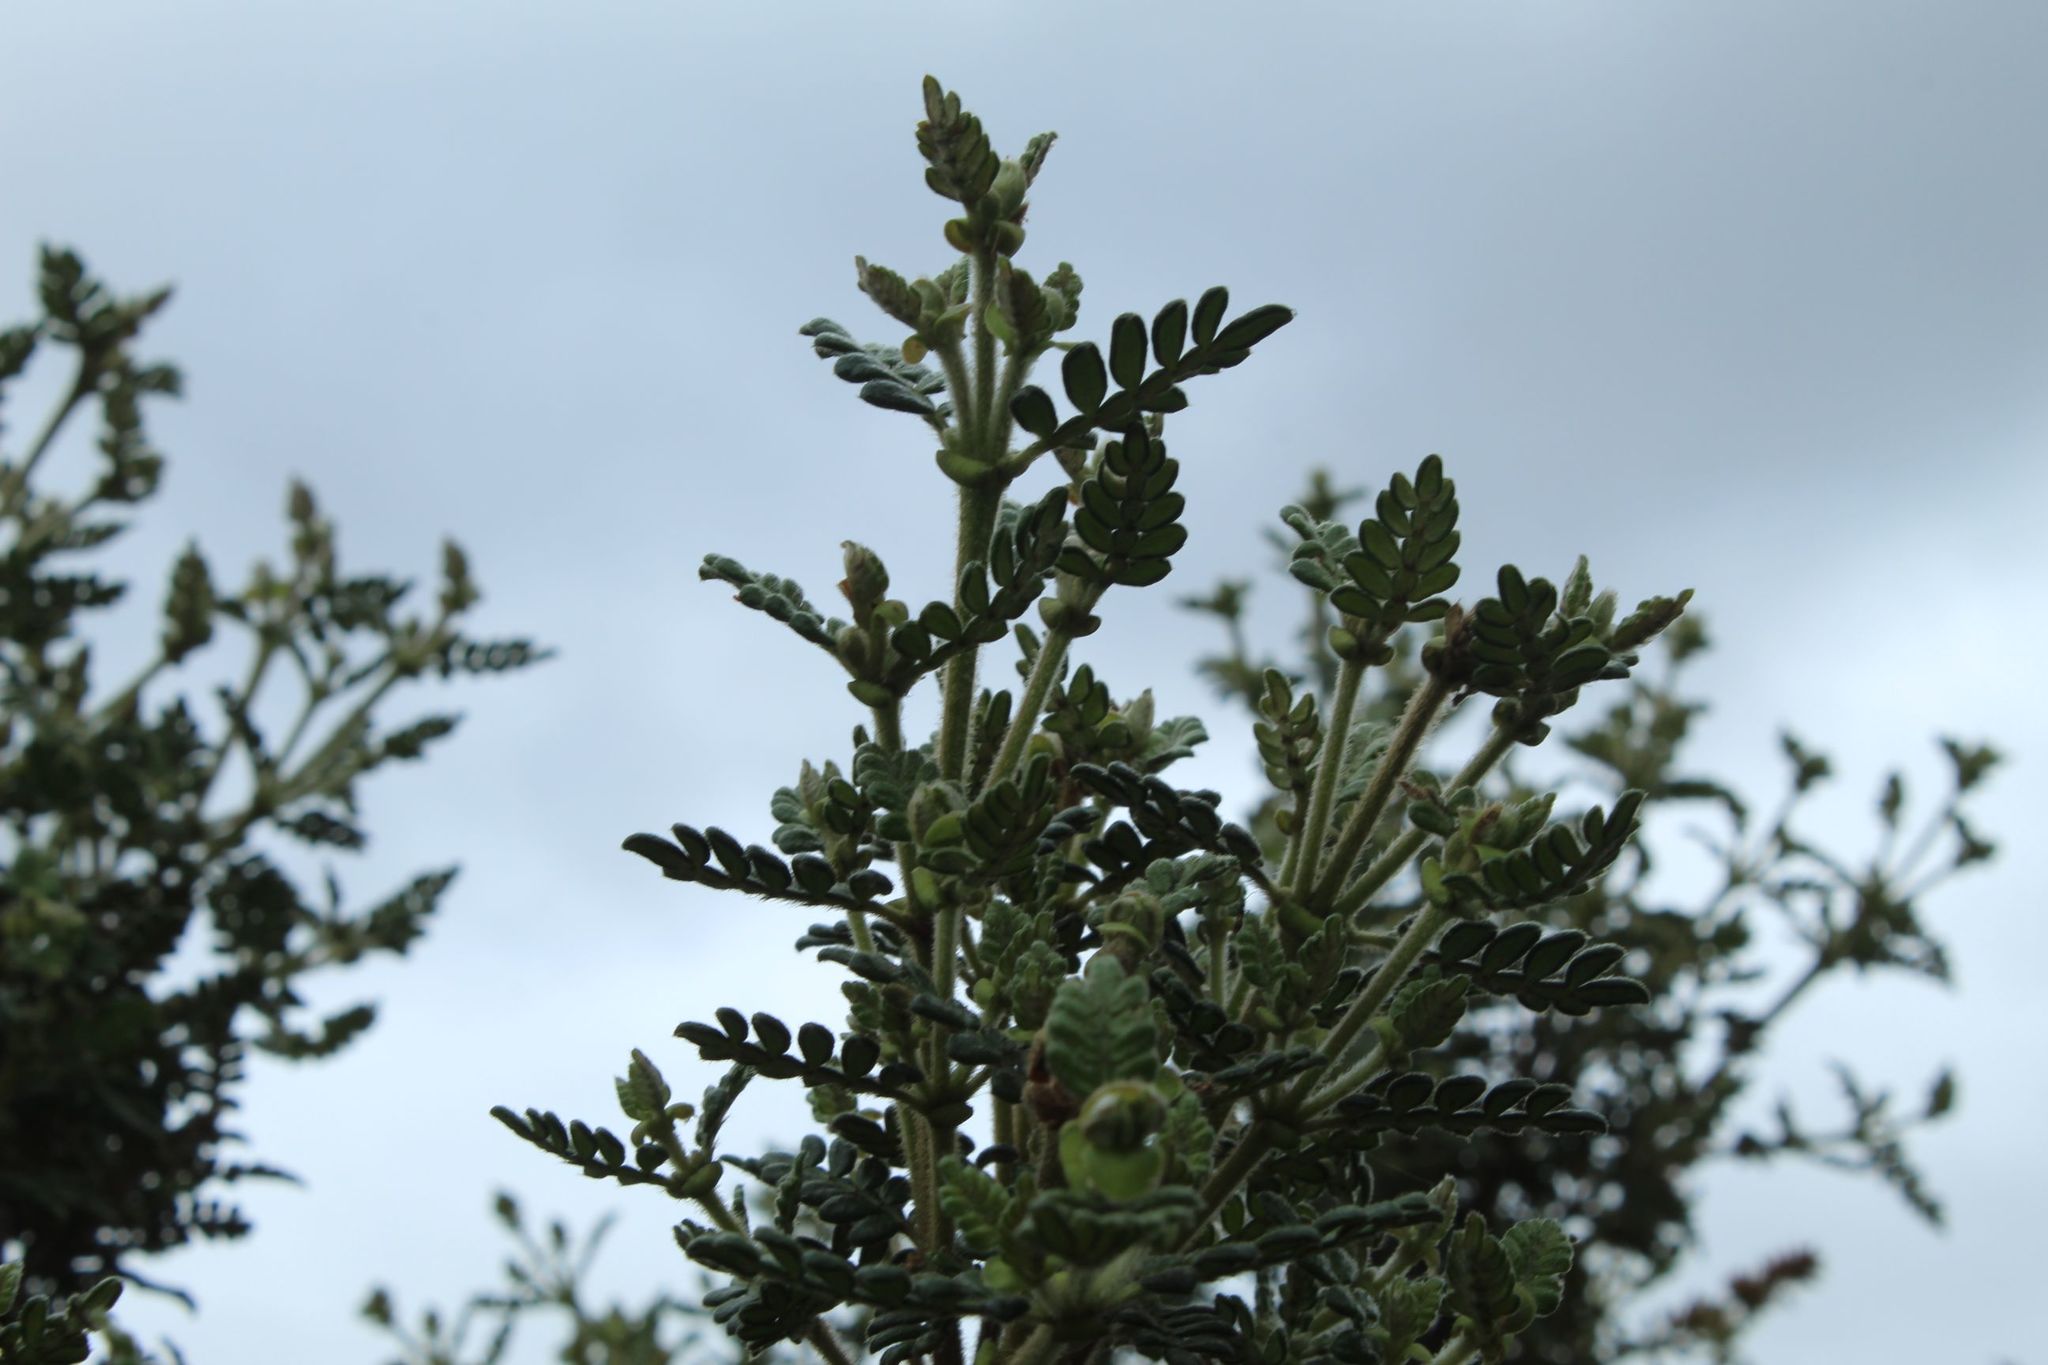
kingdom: Plantae
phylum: Tracheophyta
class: Magnoliopsida
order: Oxalidales
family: Cunoniaceae
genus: Weinmannia
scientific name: Weinmannia tomentosa
